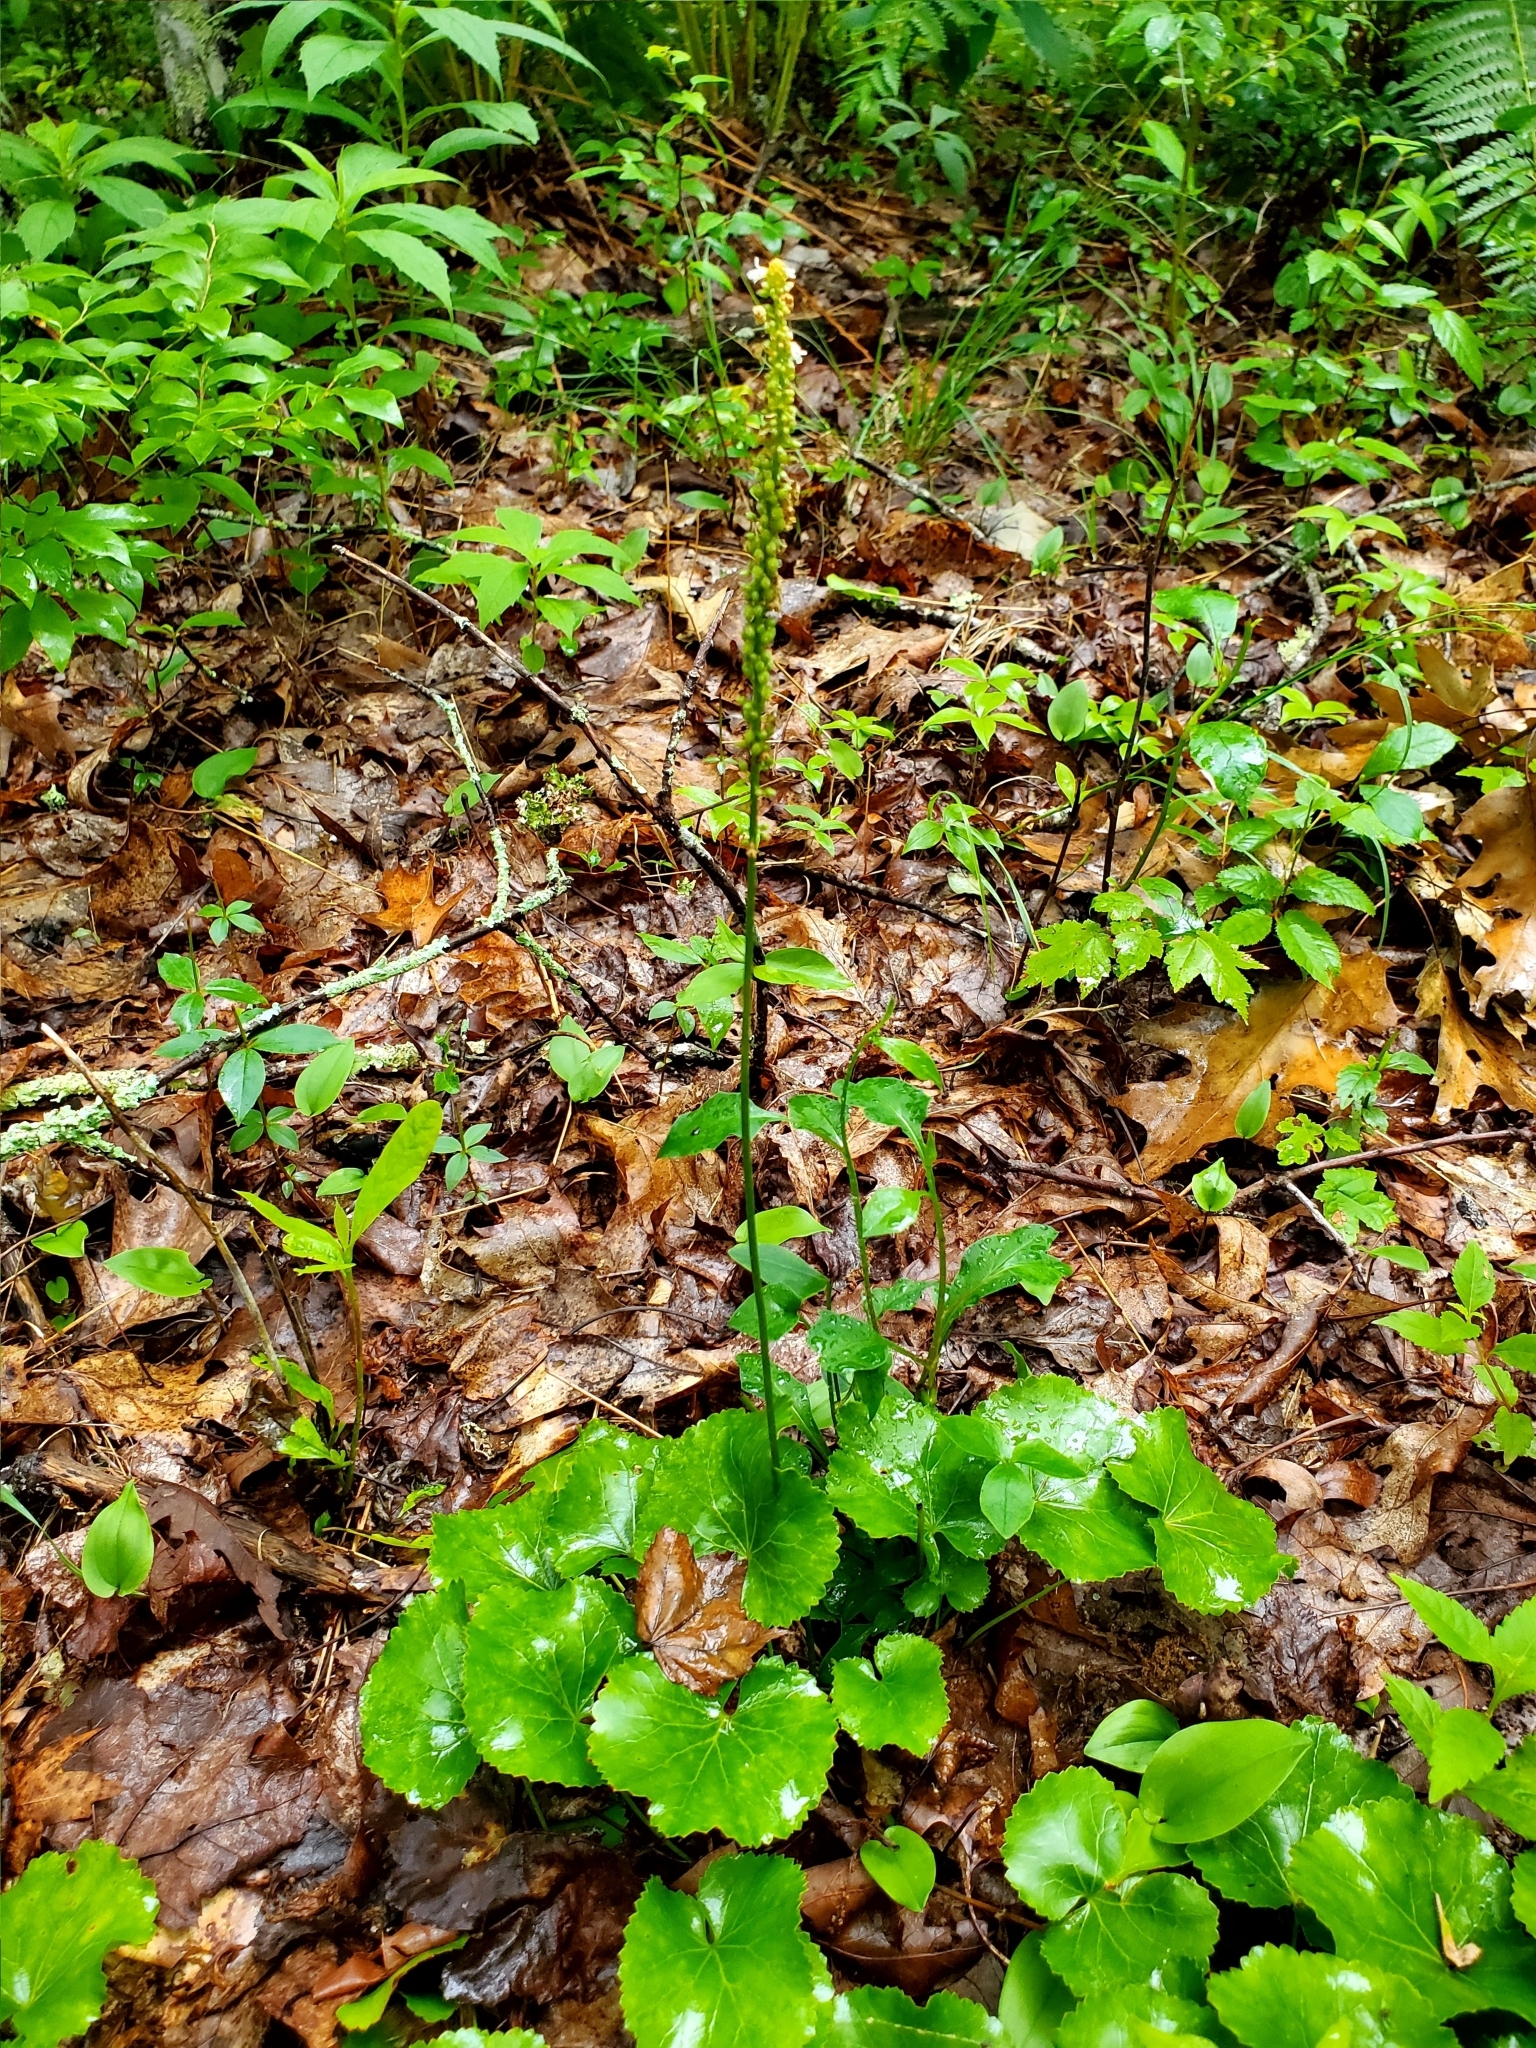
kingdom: Plantae
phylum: Tracheophyta
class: Magnoliopsida
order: Ericales
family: Diapensiaceae
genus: Galax
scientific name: Galax urceolata
